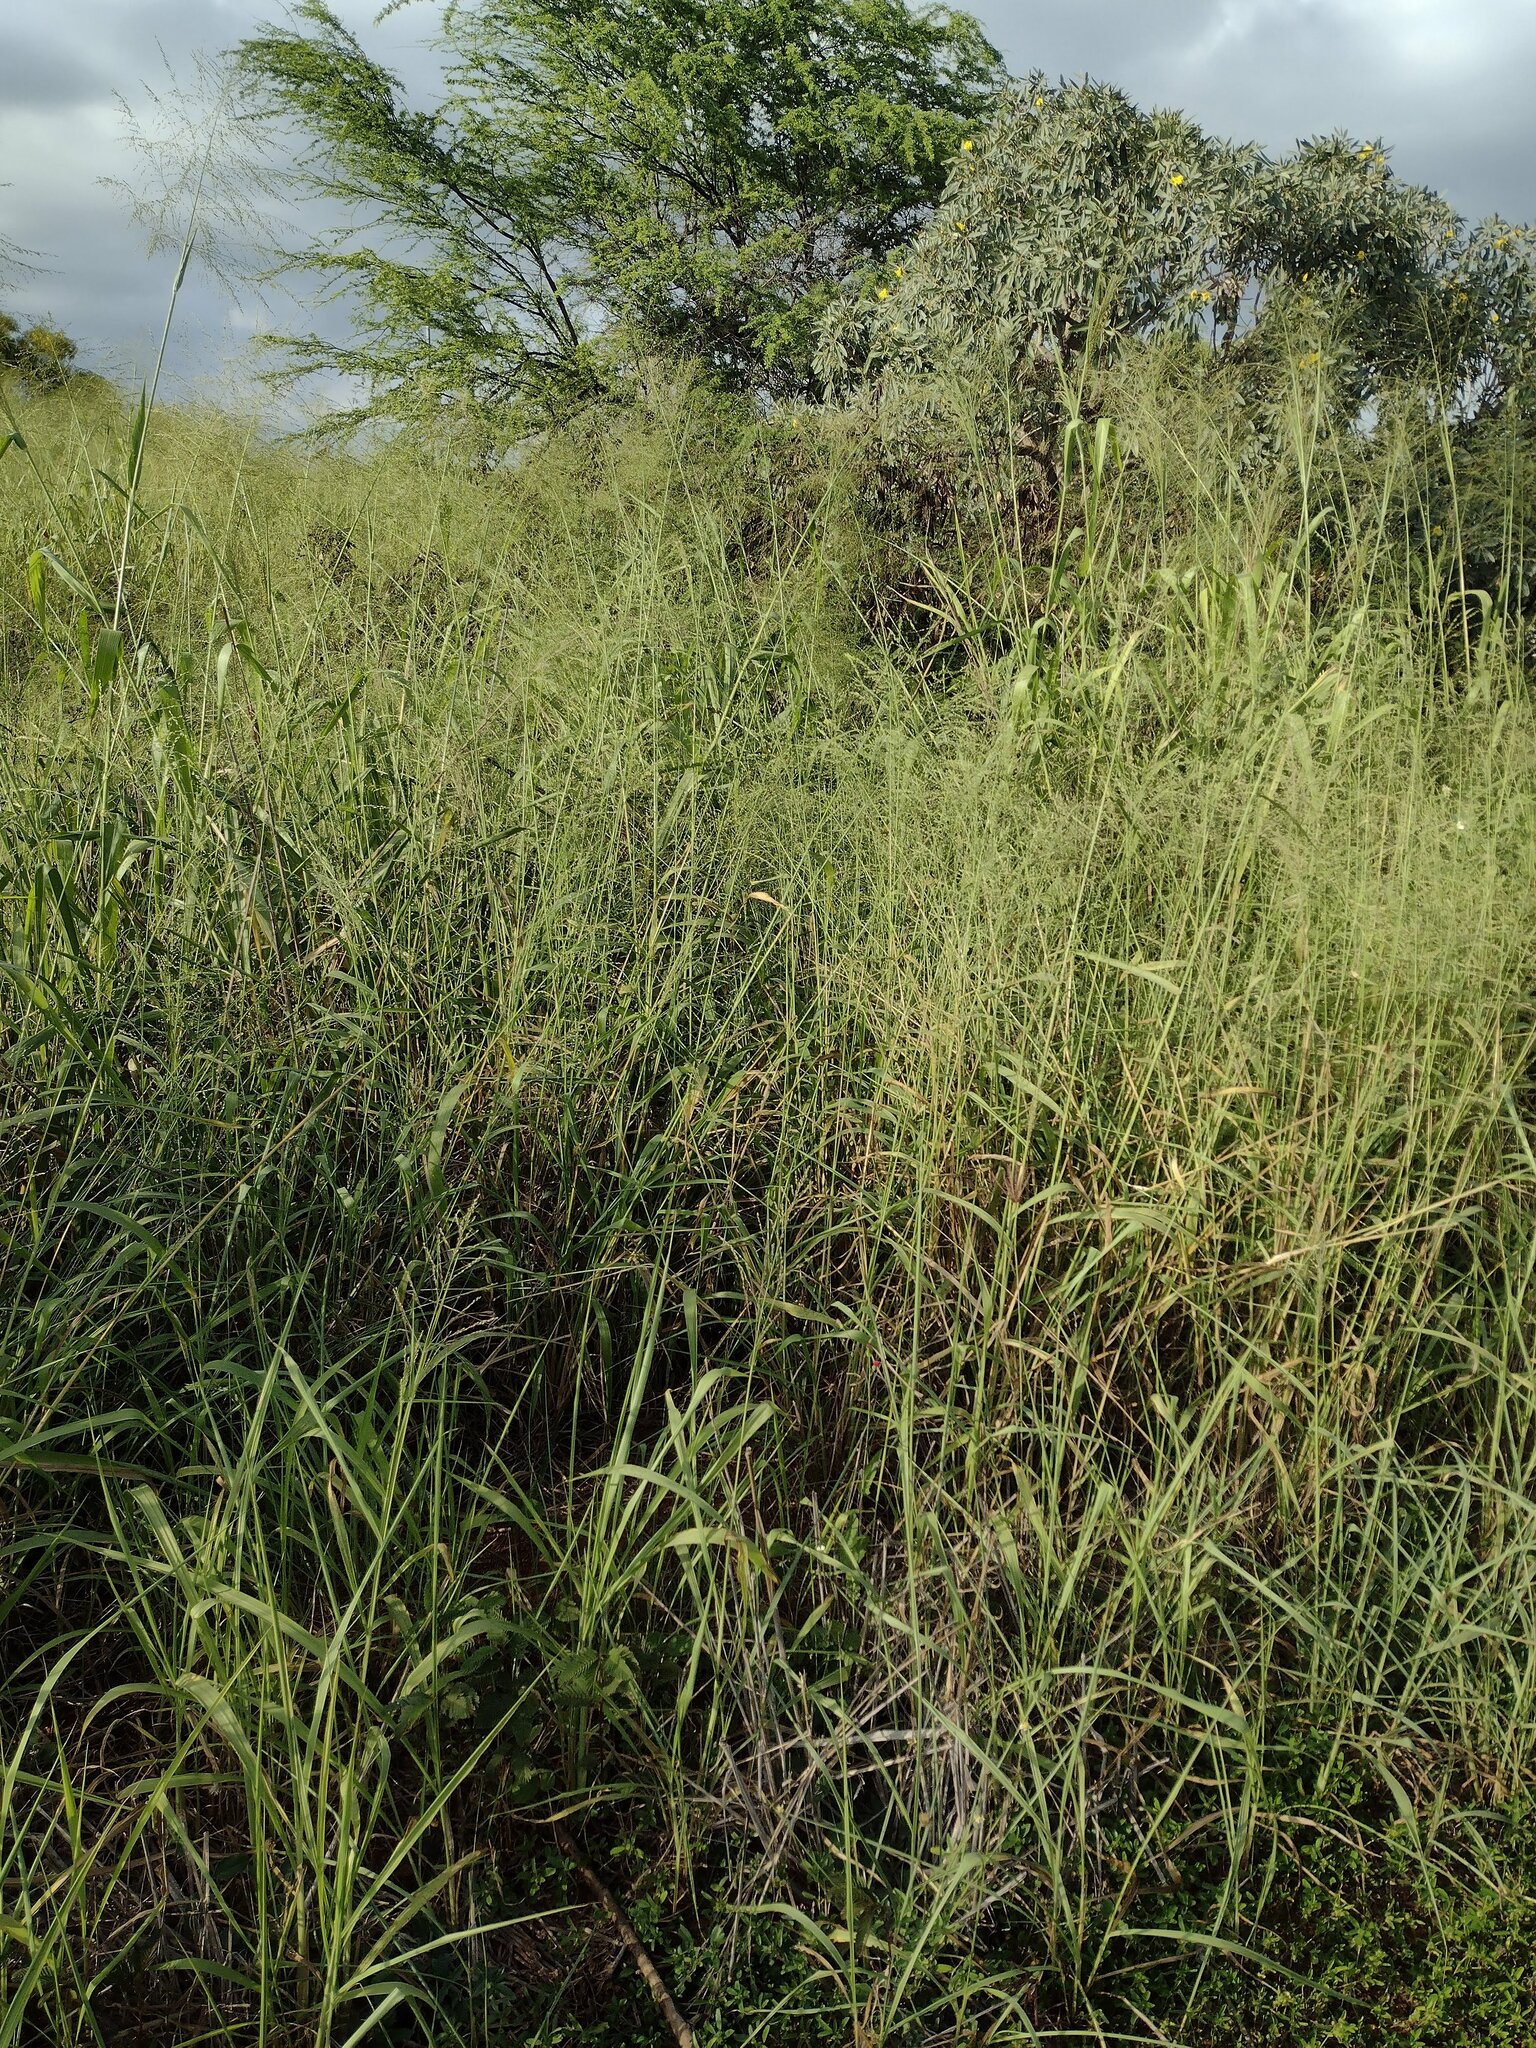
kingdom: Plantae
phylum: Tracheophyta
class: Liliopsida
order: Poales
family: Poaceae
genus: Megathyrsus
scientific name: Megathyrsus maximus
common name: Guineagrass
